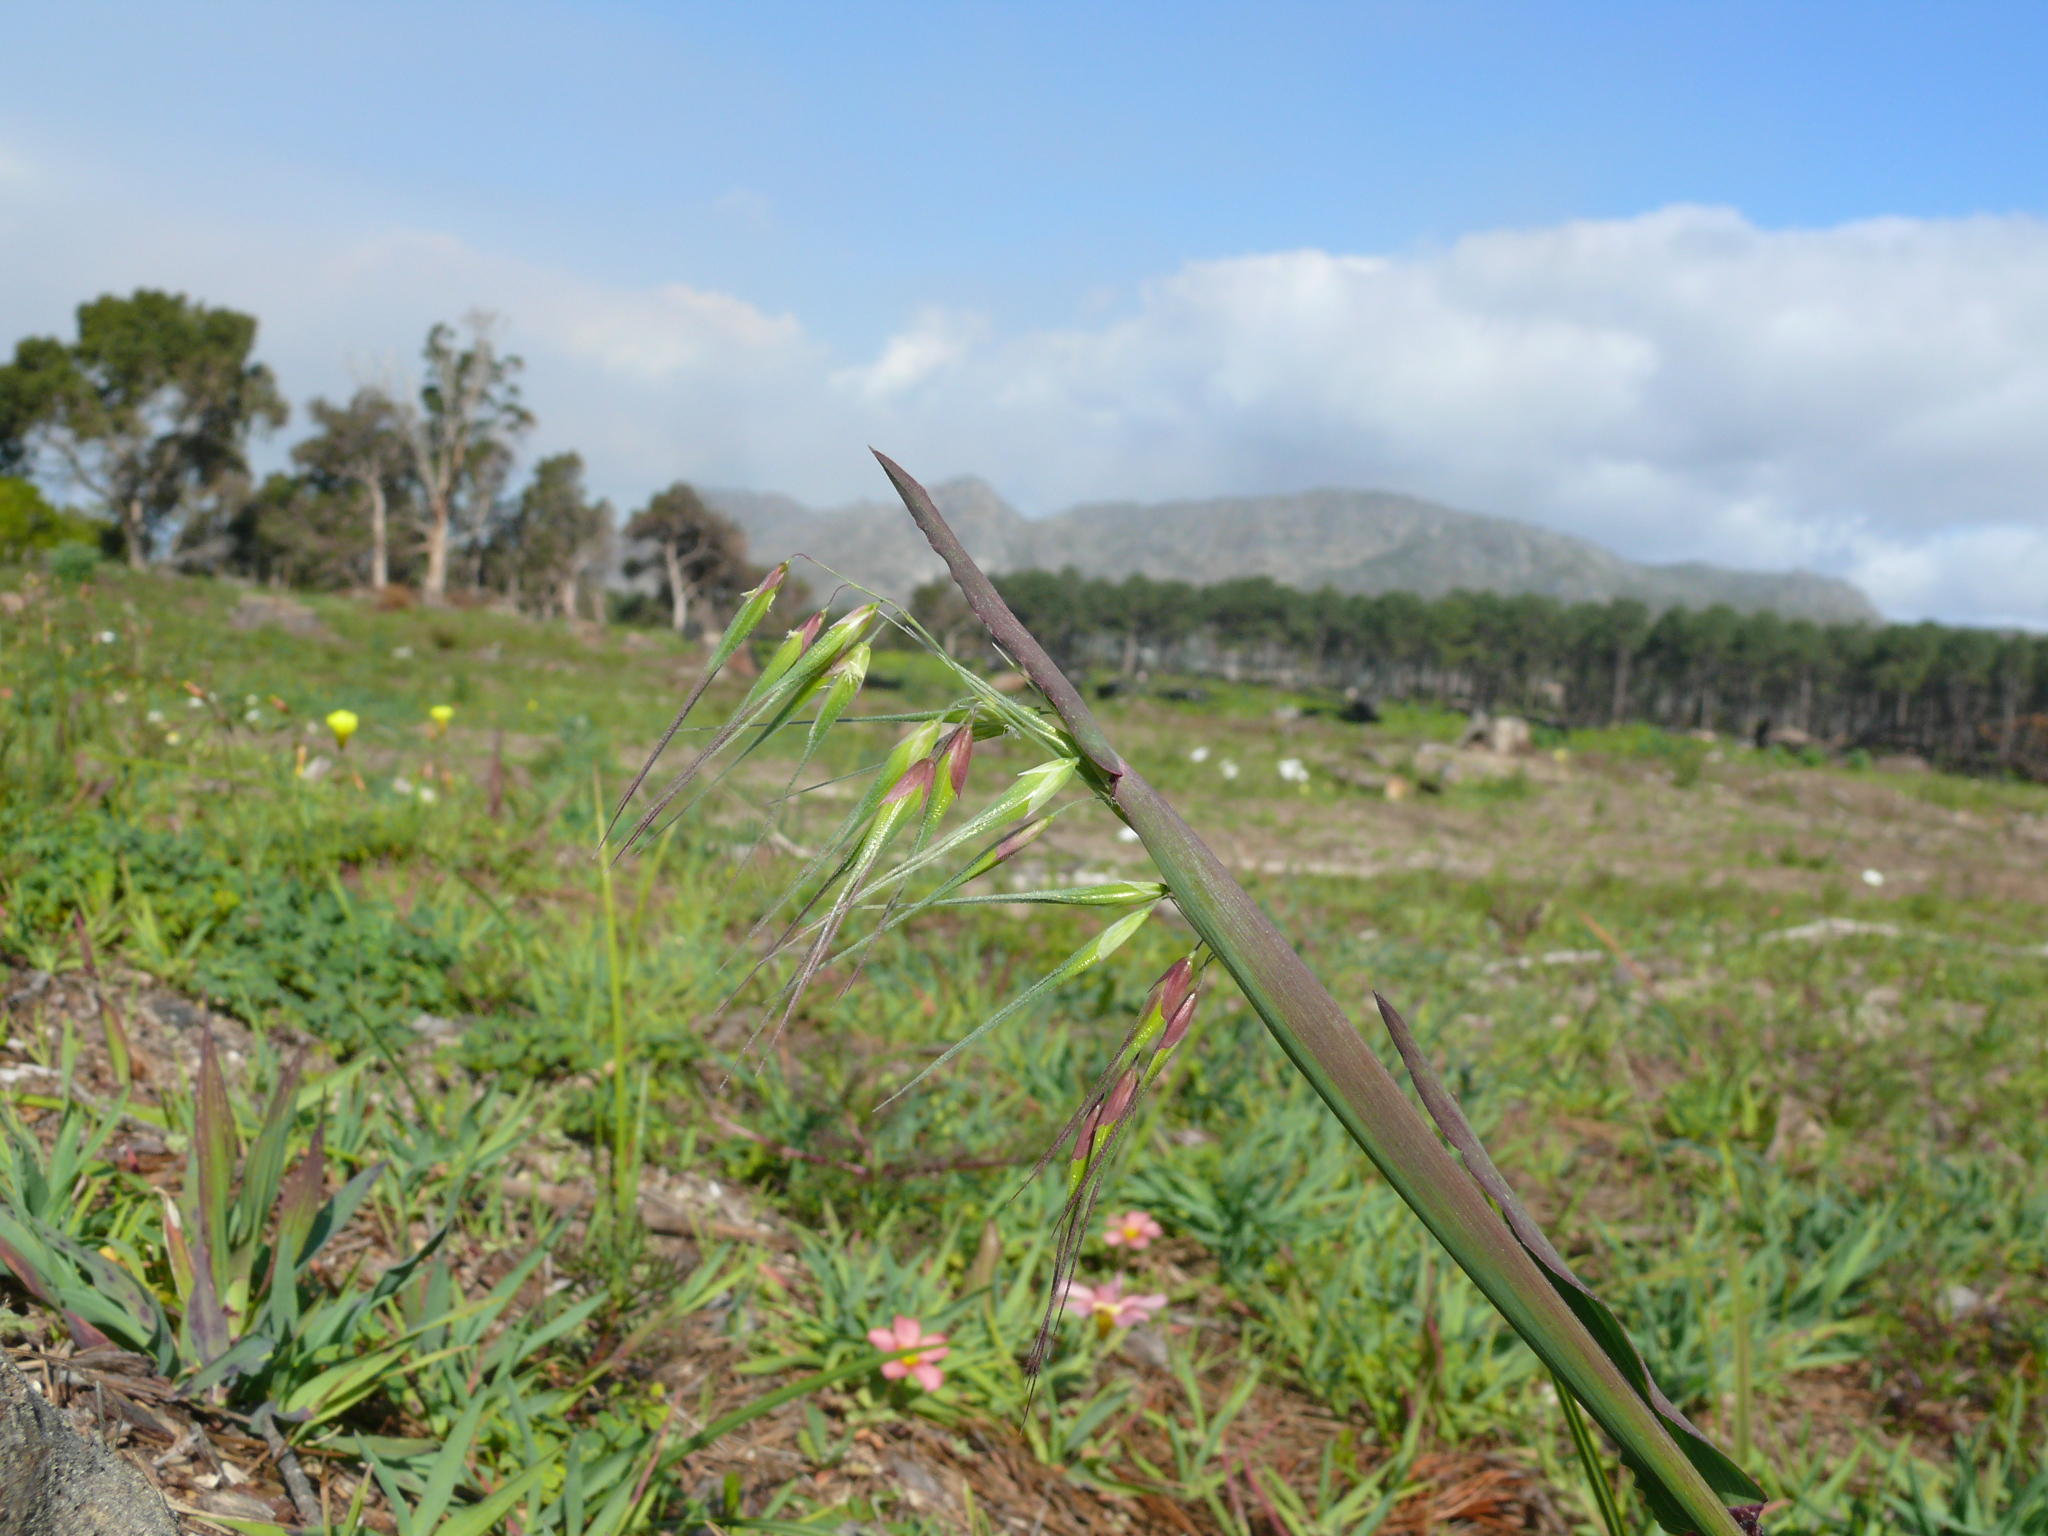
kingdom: Plantae
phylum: Tracheophyta
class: Liliopsida
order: Poales
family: Poaceae
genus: Avena
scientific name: Avena fatua
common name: Wild oat
